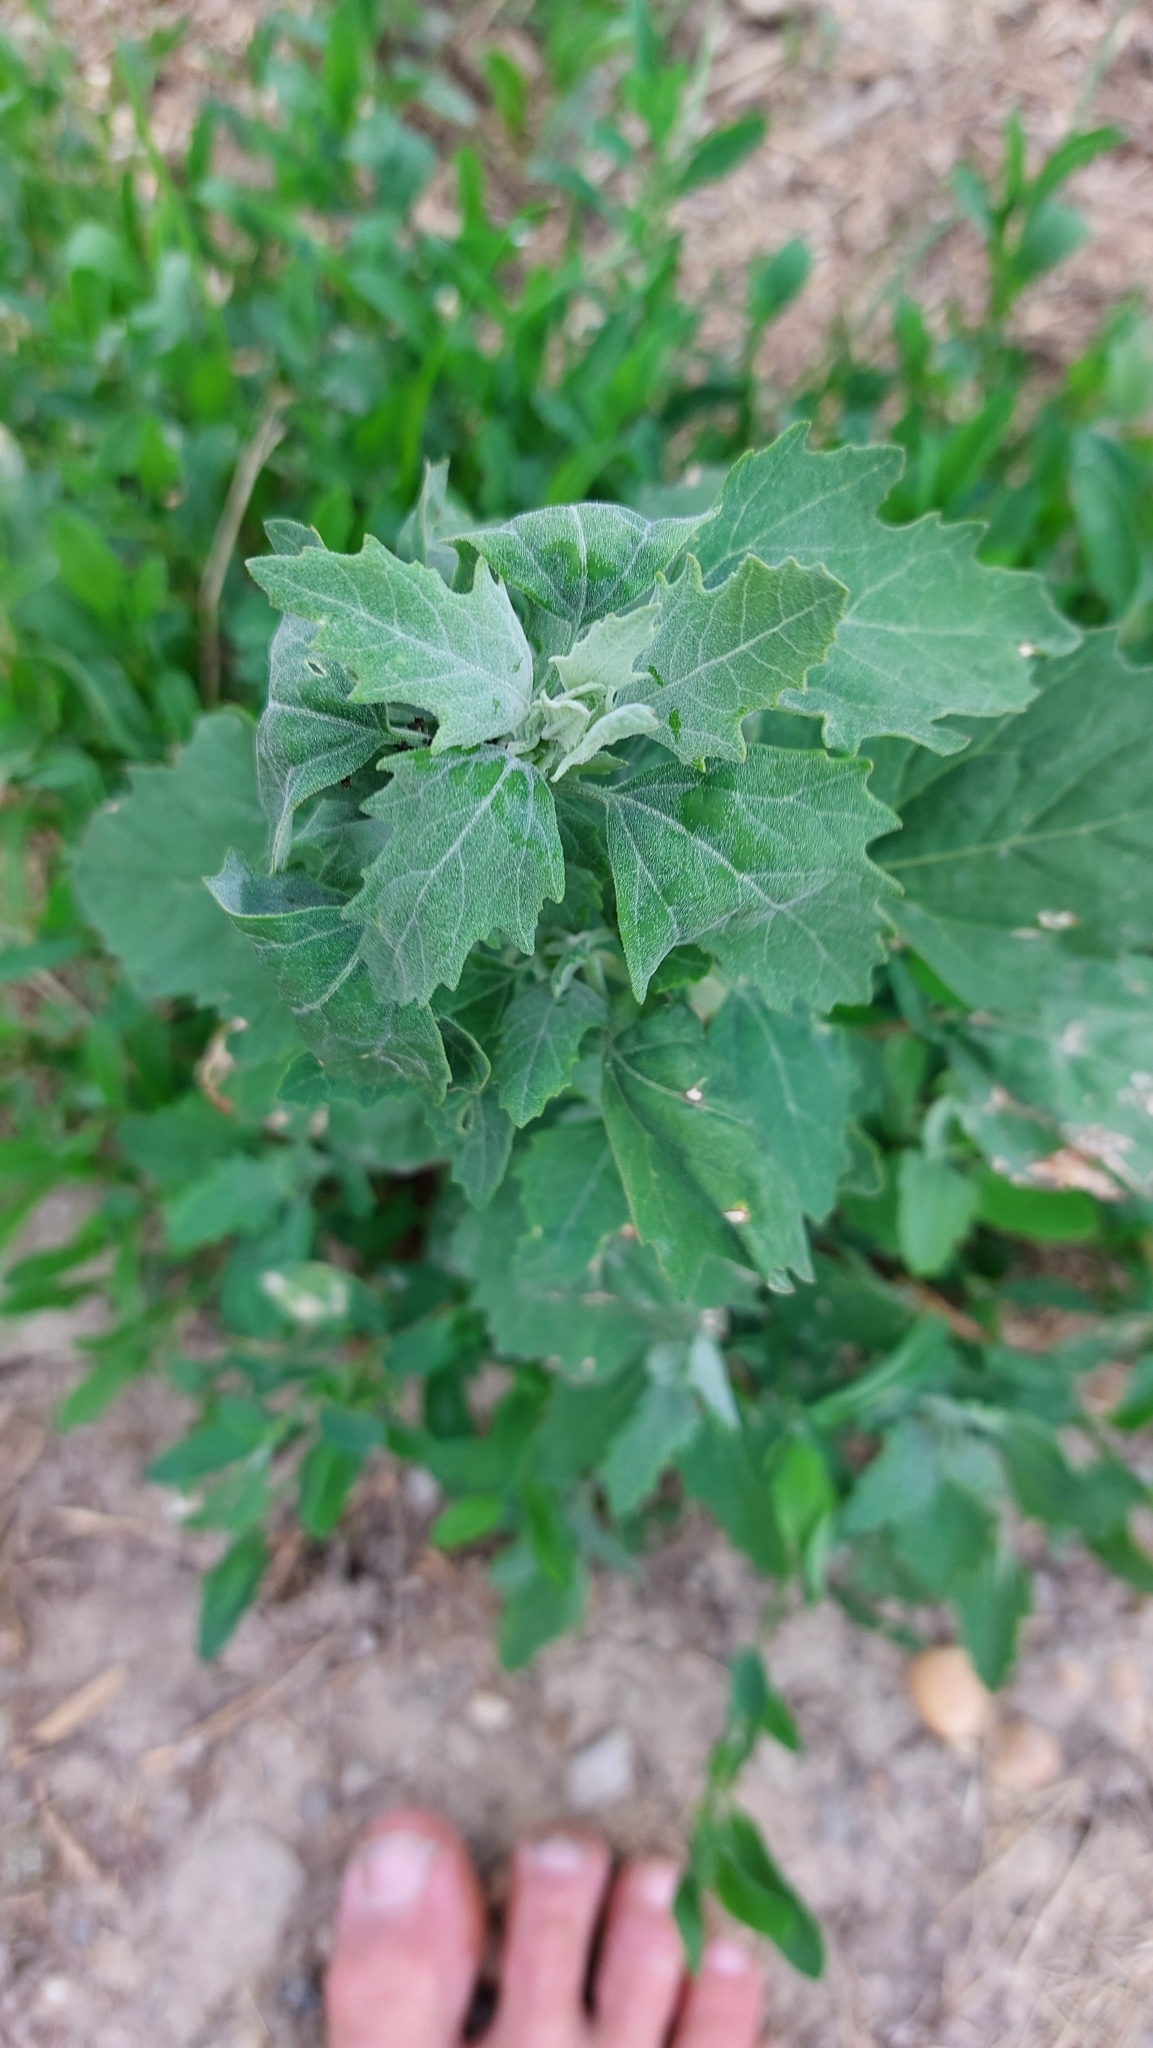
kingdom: Plantae
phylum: Tracheophyta
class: Magnoliopsida
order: Caryophyllales
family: Amaranthaceae
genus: Chenopodium
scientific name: Chenopodium album
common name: Fat-hen
